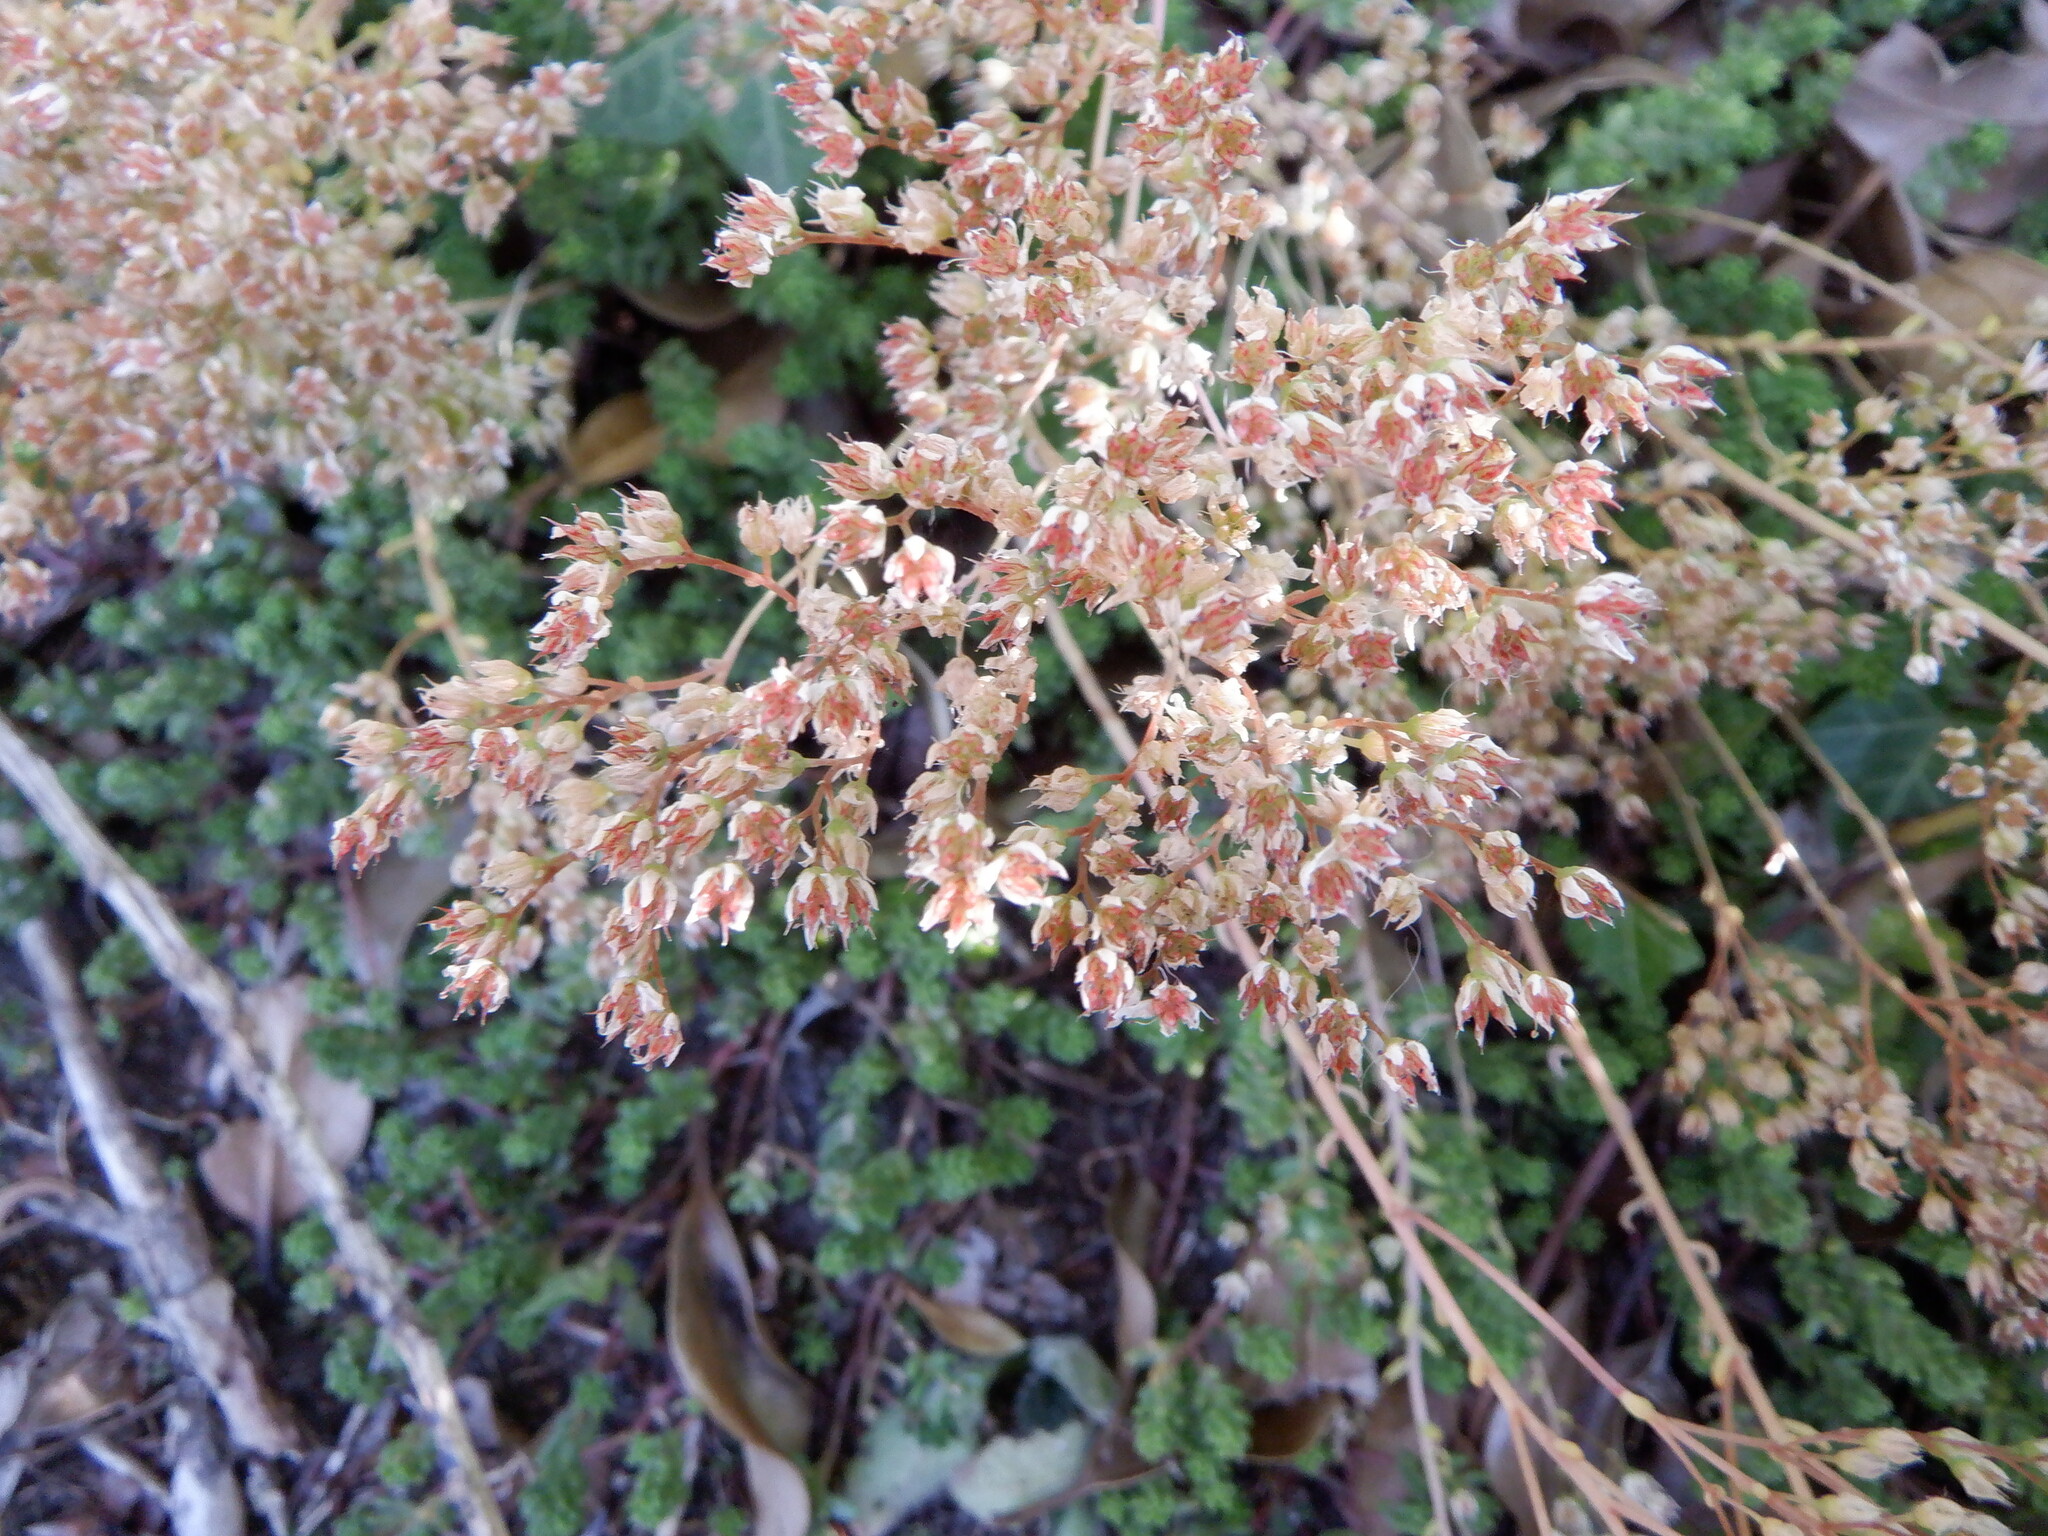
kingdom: Plantae
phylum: Tracheophyta
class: Magnoliopsida
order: Saxifragales
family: Crassulaceae
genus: Sedum
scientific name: Sedum album
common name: White stonecrop
